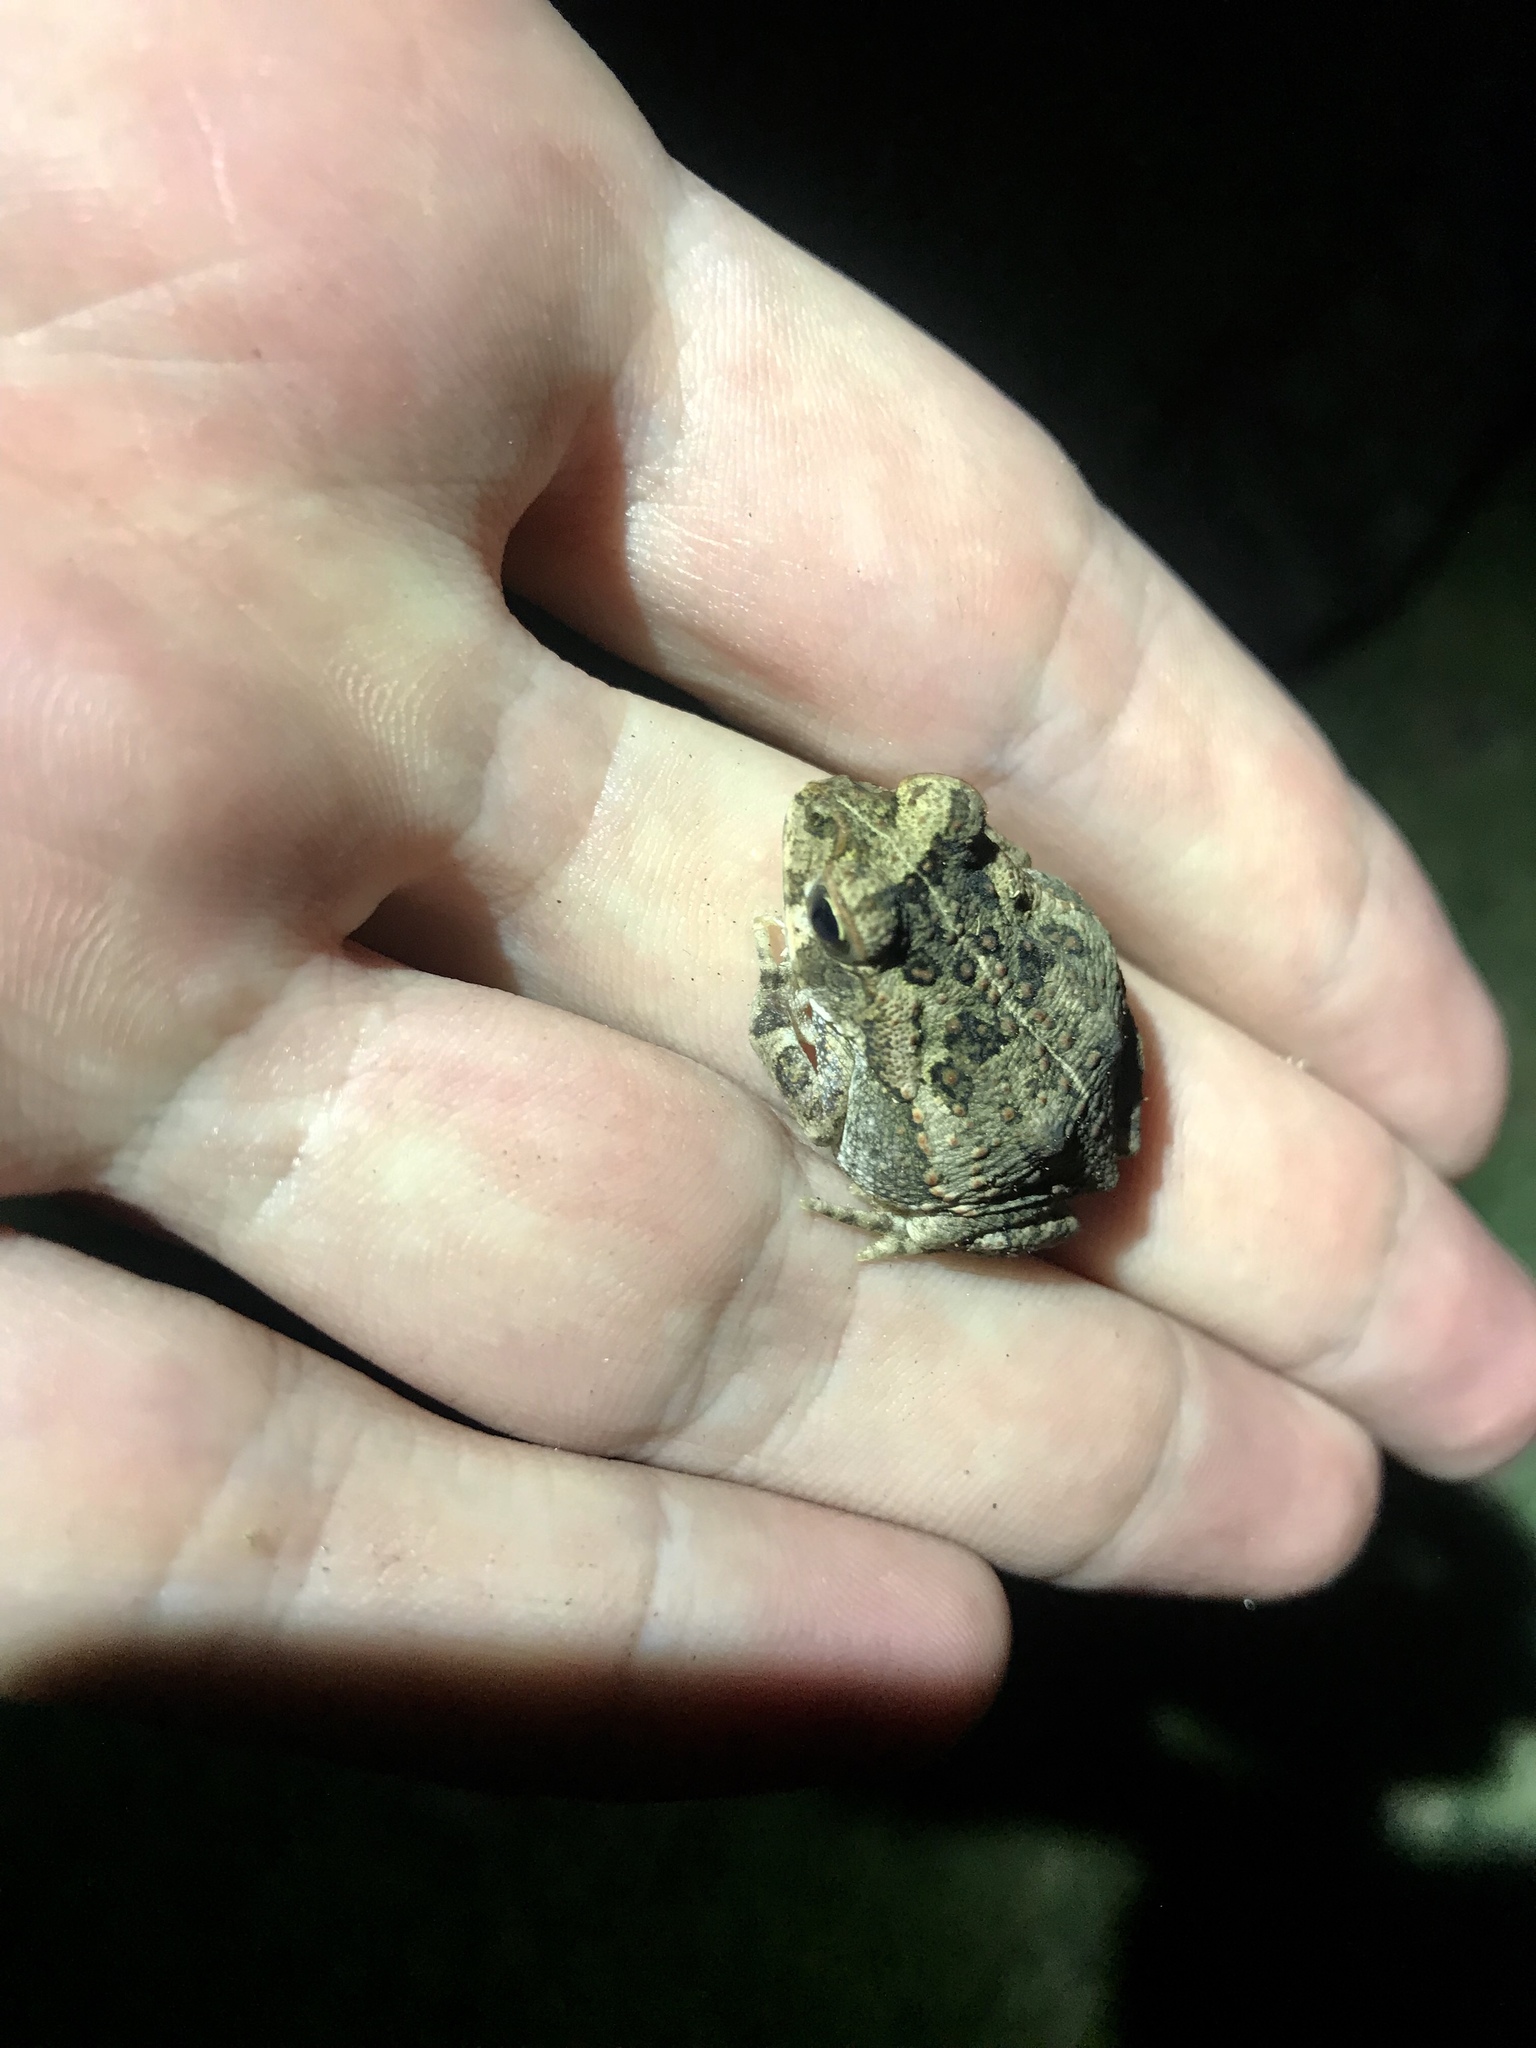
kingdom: Animalia
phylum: Chordata
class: Amphibia
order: Anura
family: Bufonidae
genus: Rhinella
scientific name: Rhinella horribilis
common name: Mesoamerican cane toad
